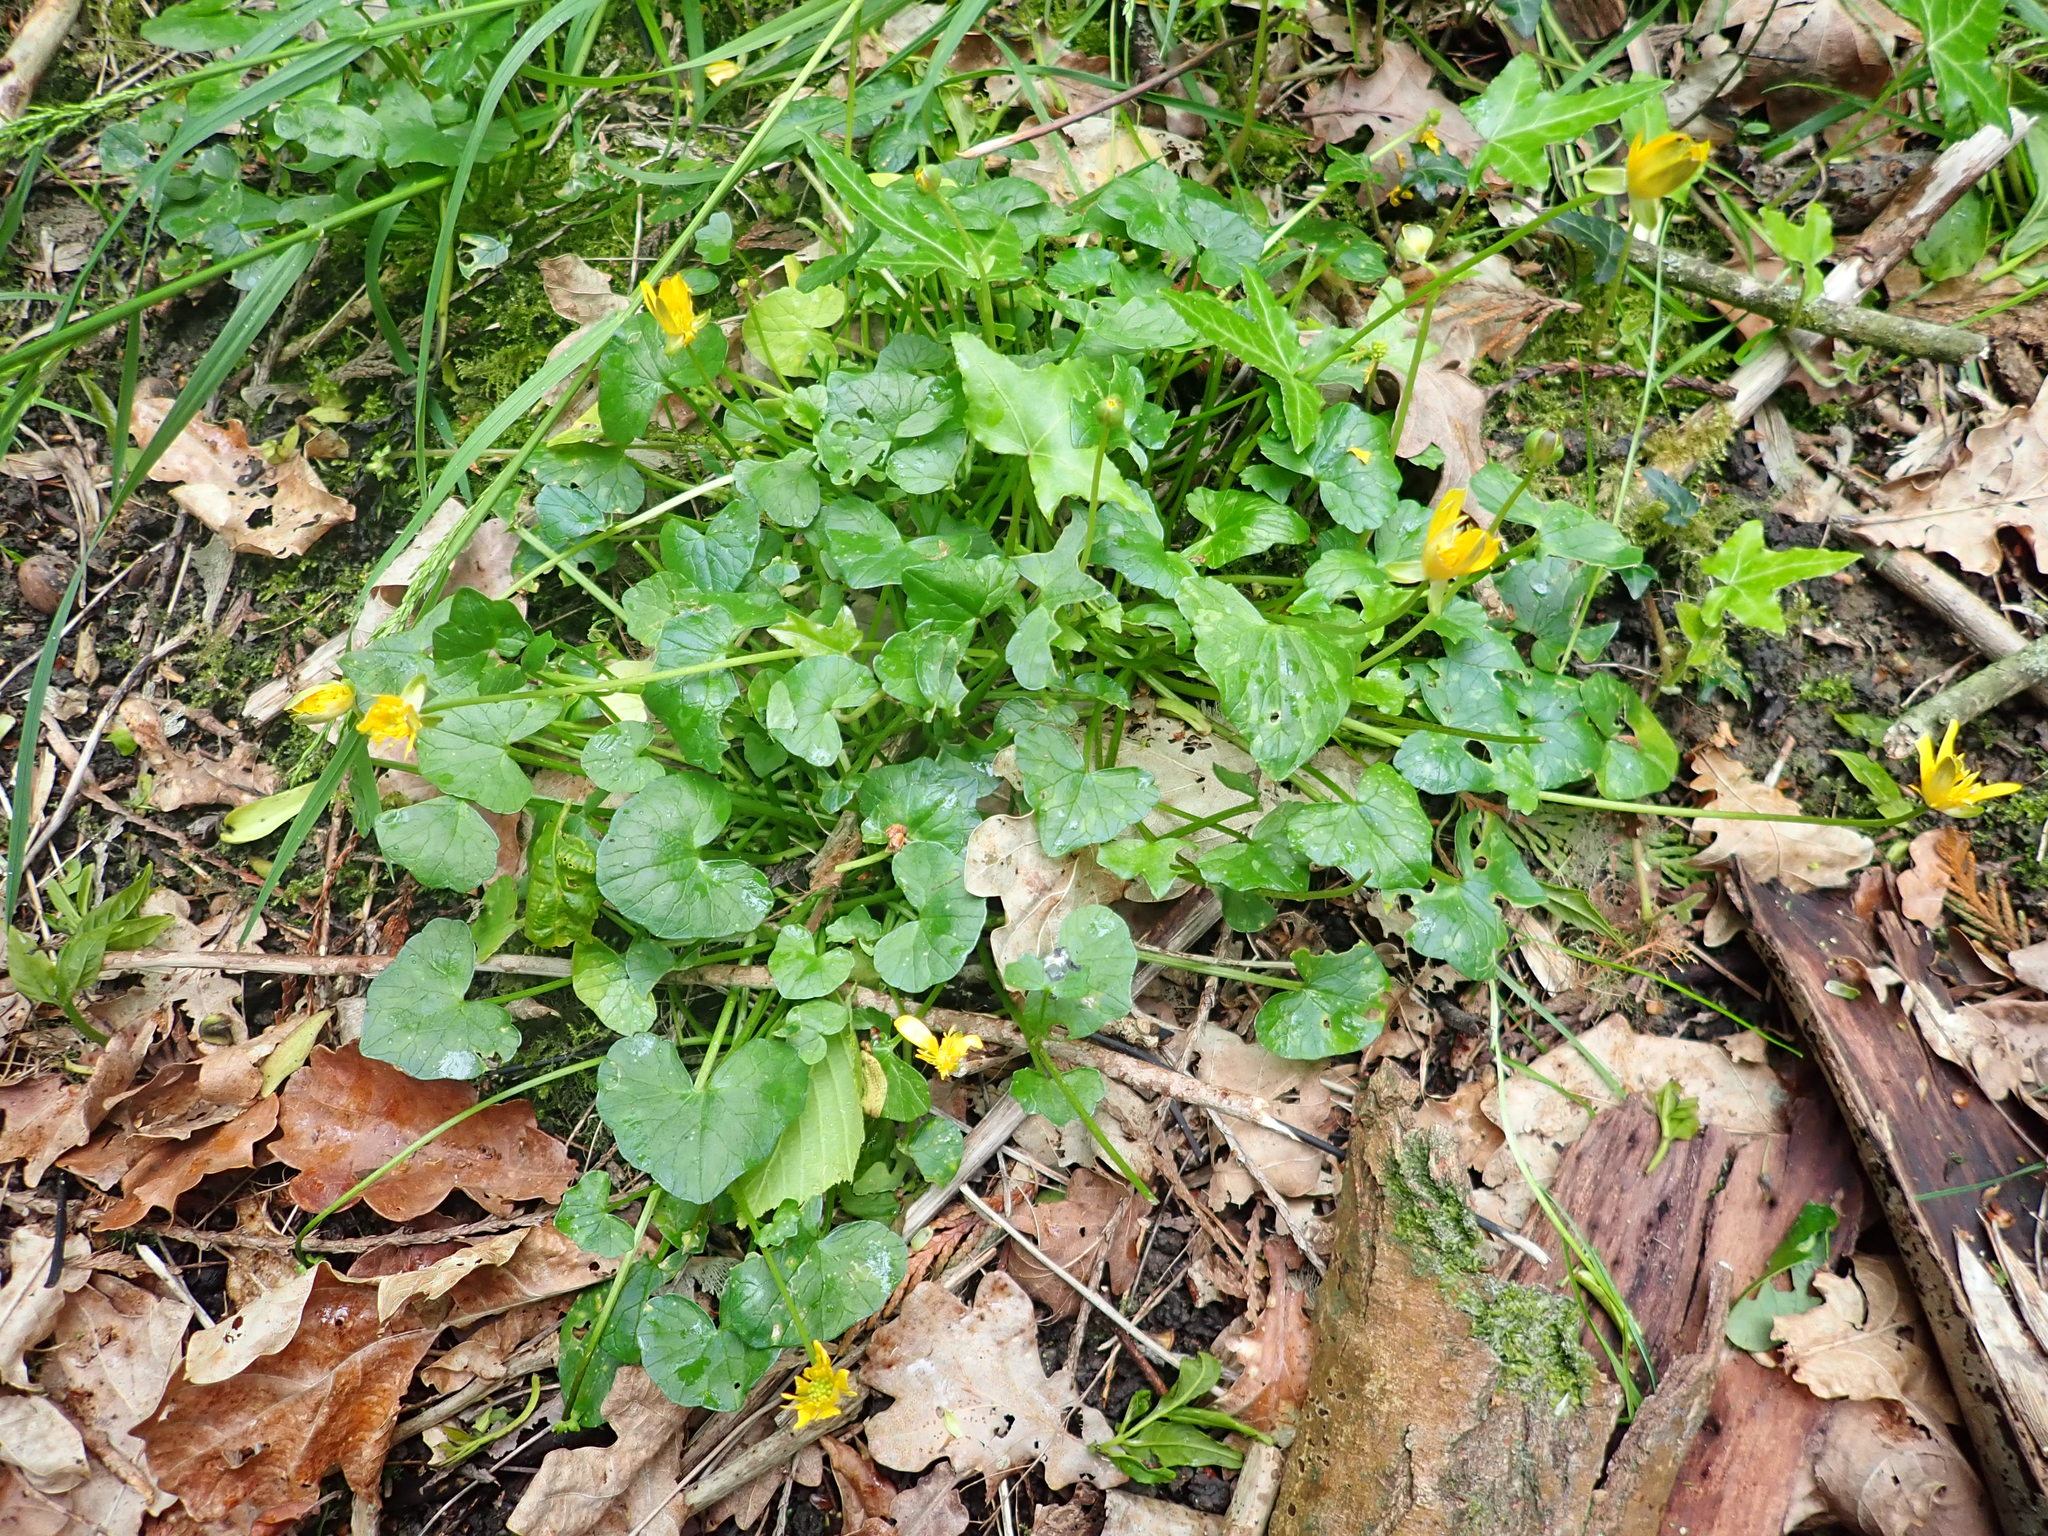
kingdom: Plantae
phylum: Tracheophyta
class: Magnoliopsida
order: Ranunculales
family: Ranunculaceae
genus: Ficaria
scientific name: Ficaria verna
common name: Lesser celandine
